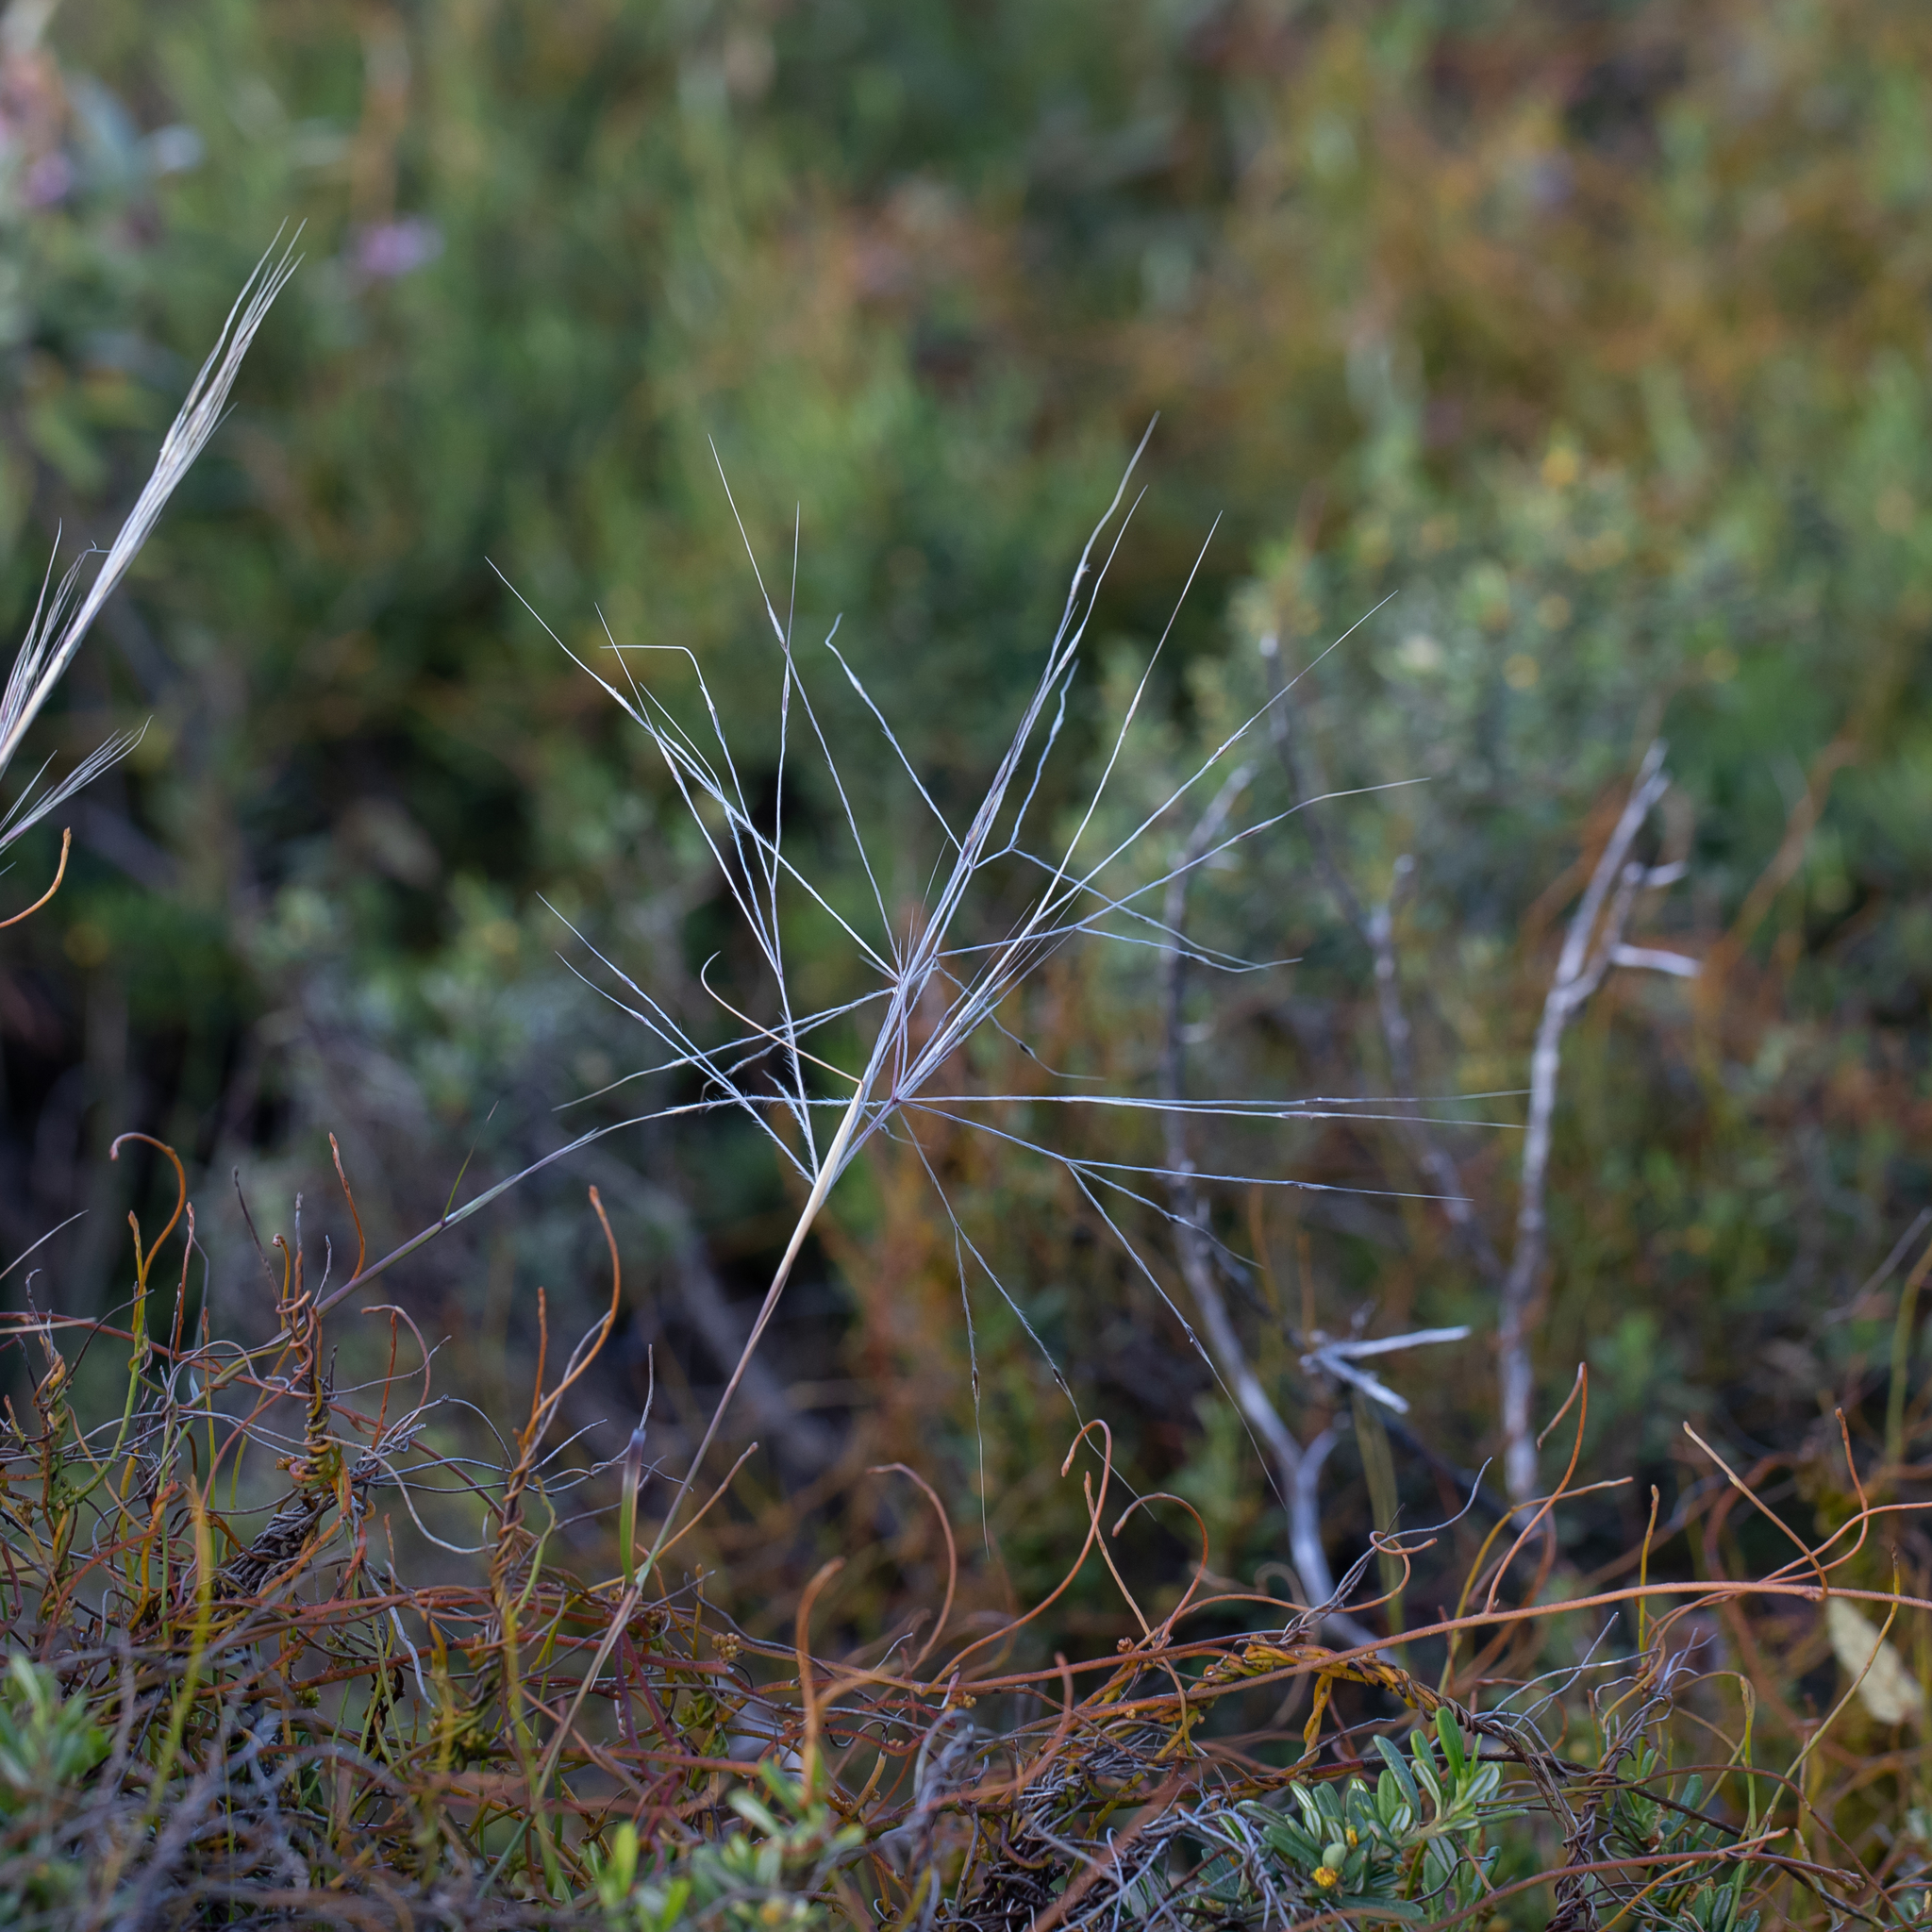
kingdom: Plantae
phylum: Tracheophyta
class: Liliopsida
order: Poales
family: Poaceae
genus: Austrostipa
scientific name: Austrostipa elegantissima
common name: Feather spear grass
